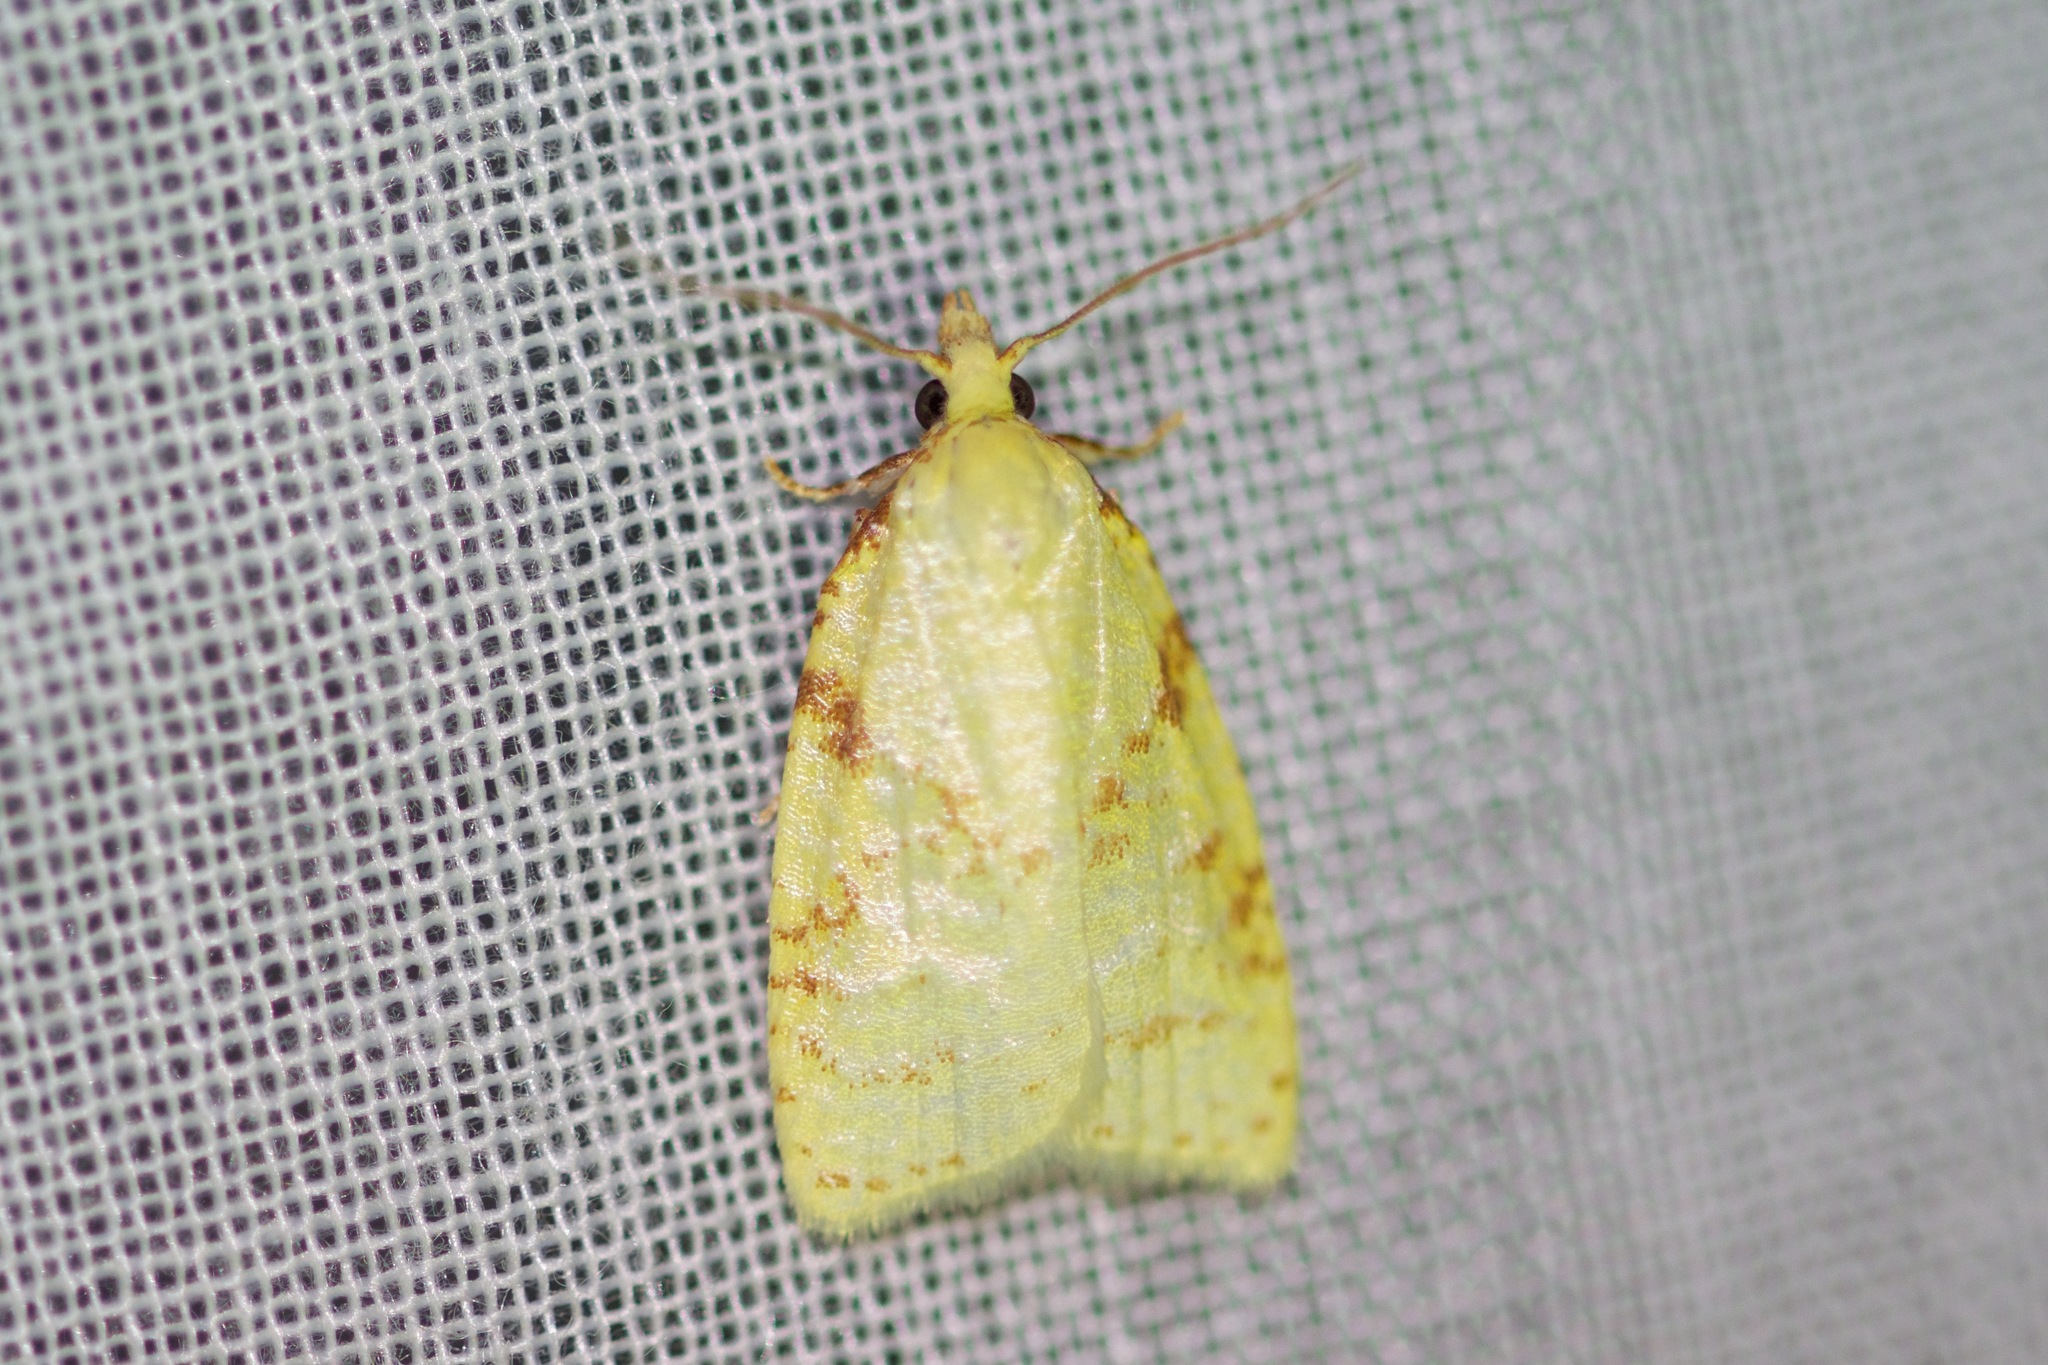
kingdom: Animalia
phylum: Arthropoda
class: Insecta
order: Lepidoptera
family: Tortricidae
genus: Cenopis
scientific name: Cenopis pettitana
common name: Maple-basswood leafroller moth
